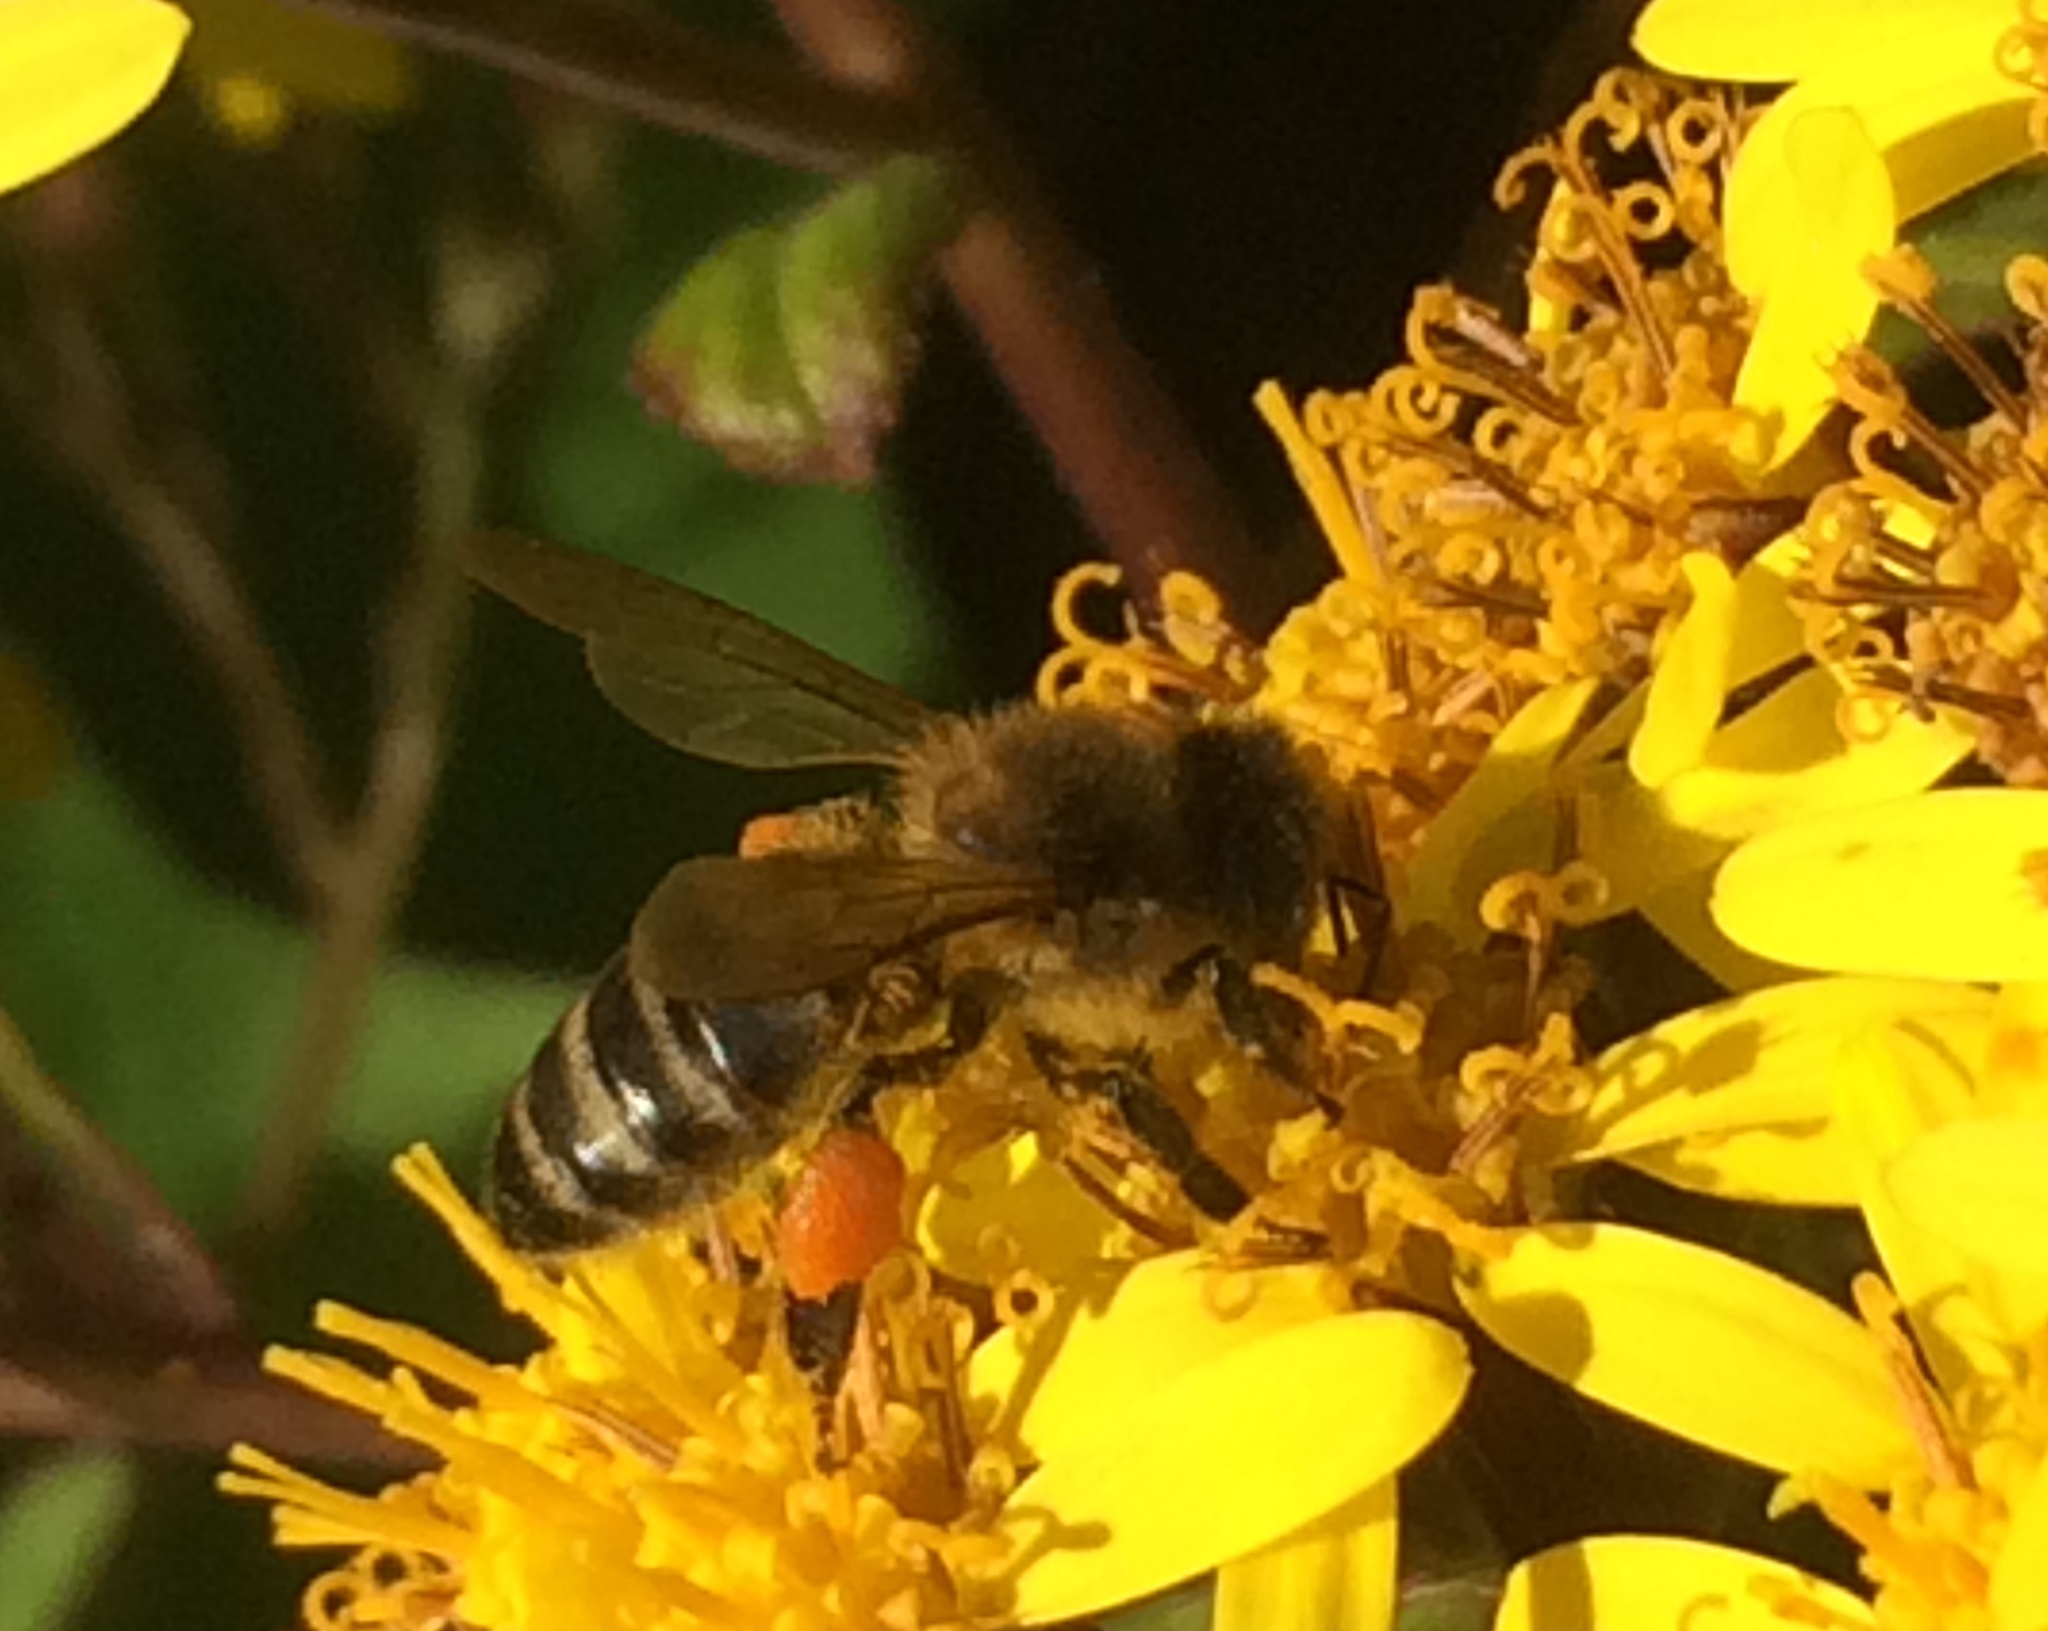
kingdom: Animalia
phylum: Arthropoda
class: Insecta
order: Hymenoptera
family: Apidae
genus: Apis
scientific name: Apis mellifera
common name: Honey bee
